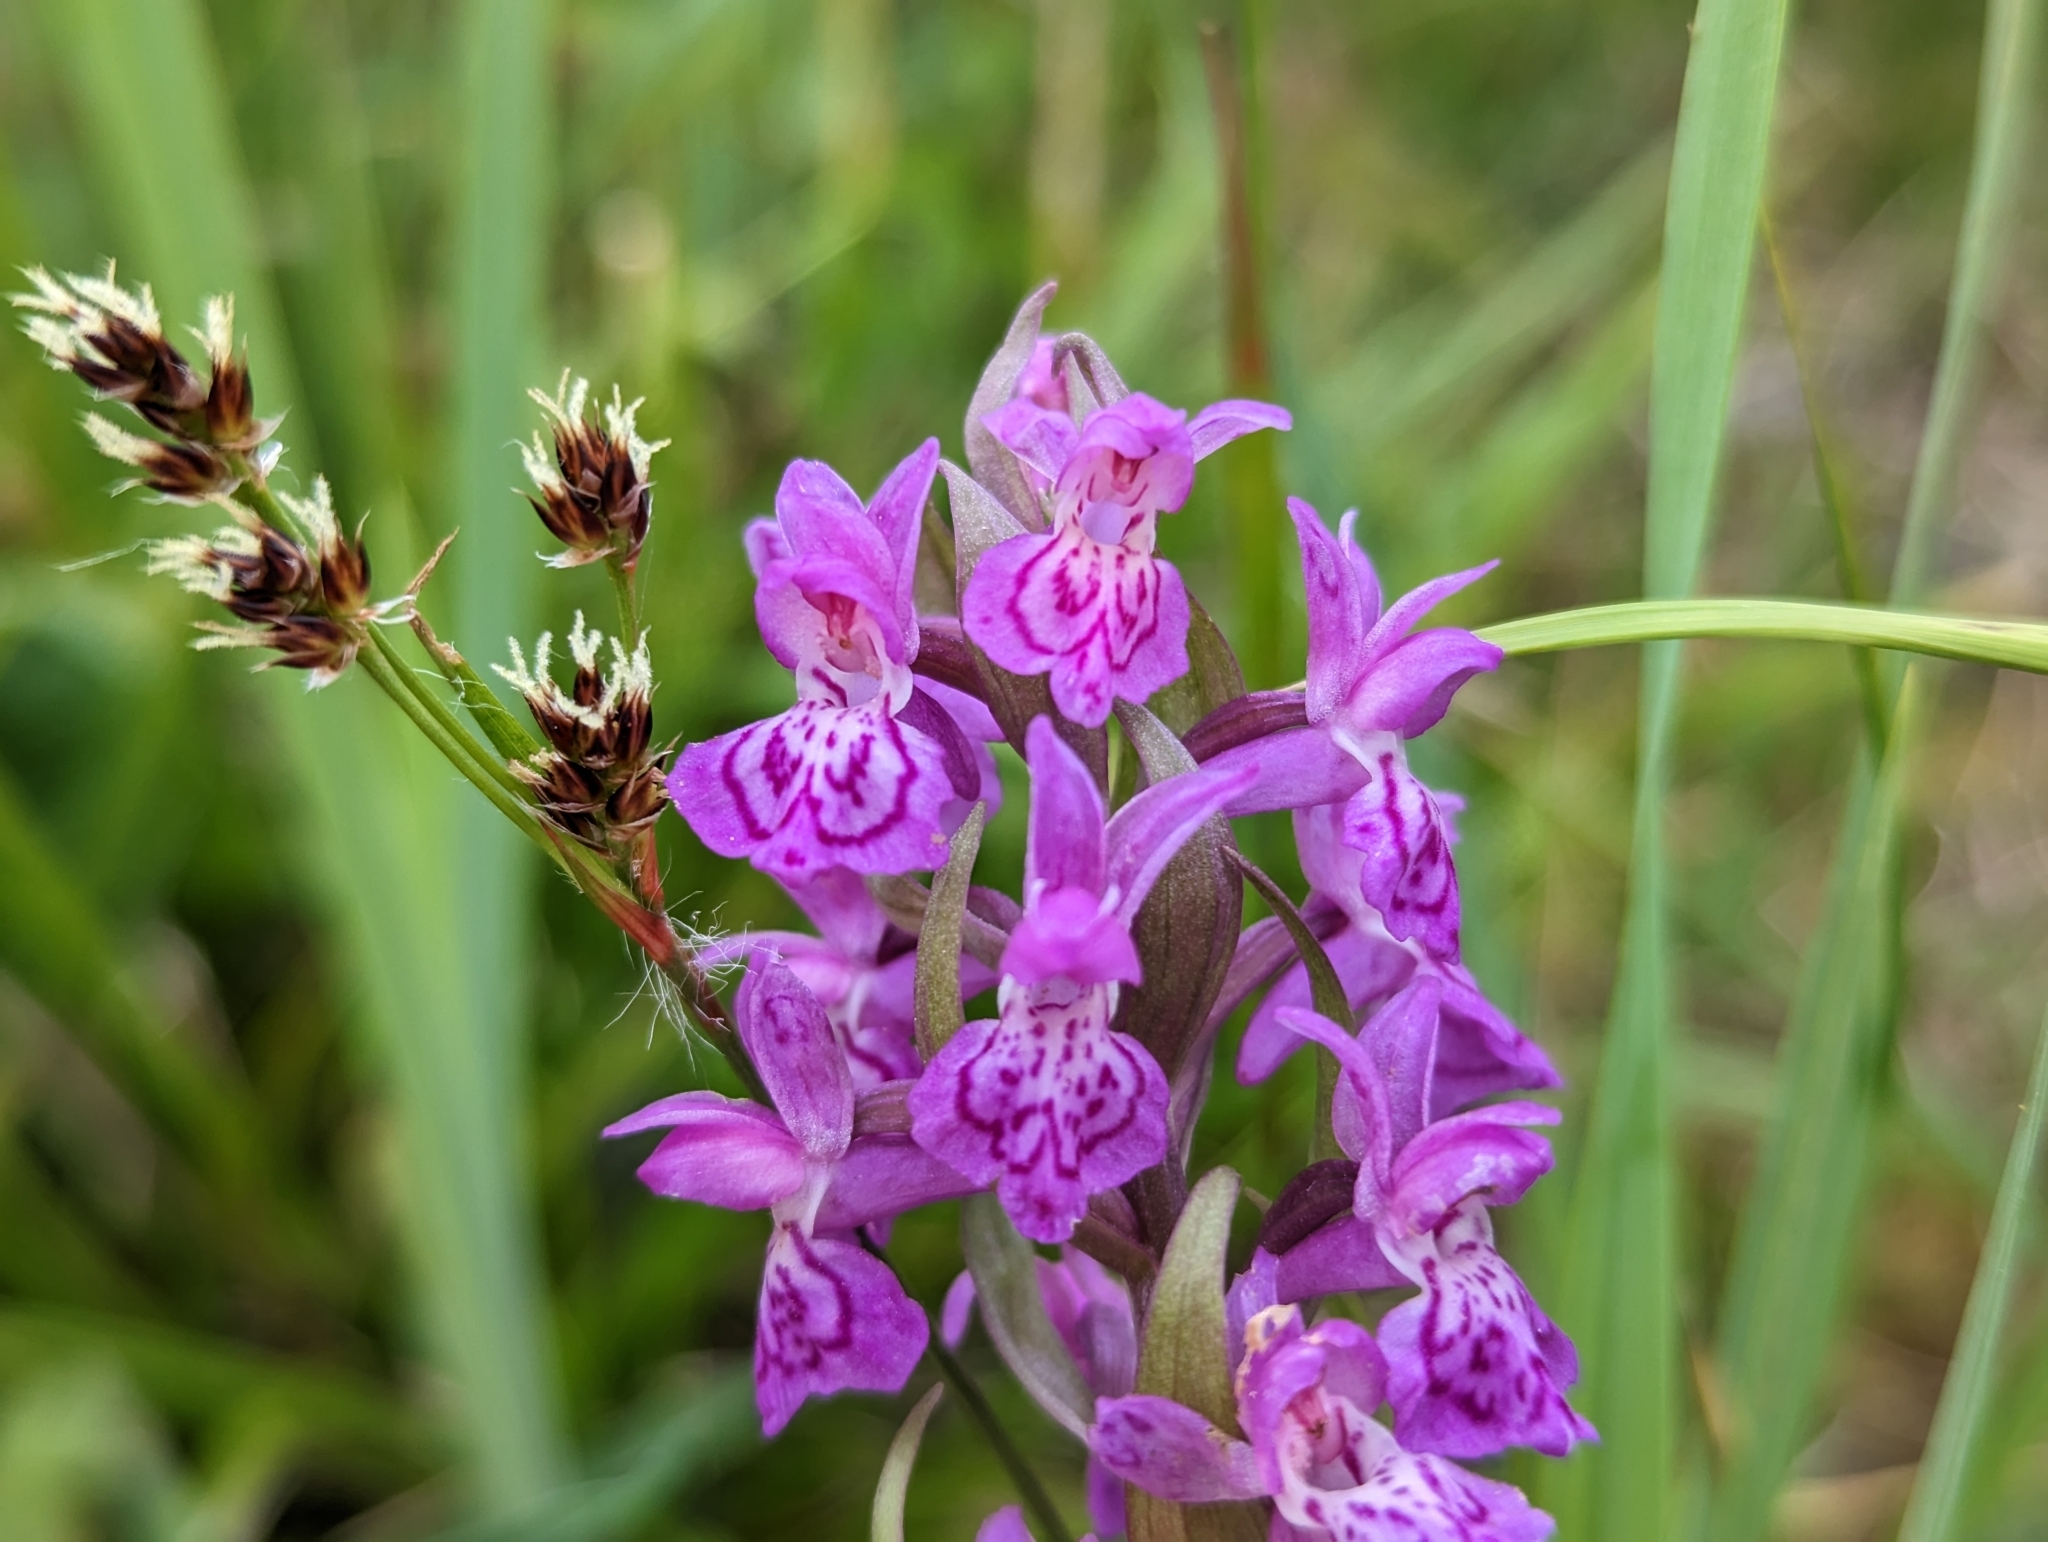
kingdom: Plantae
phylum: Tracheophyta
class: Liliopsida
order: Asparagales
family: Orchidaceae
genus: Dactylorhiza
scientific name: Dactylorhiza majalis
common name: Marsh orchid
